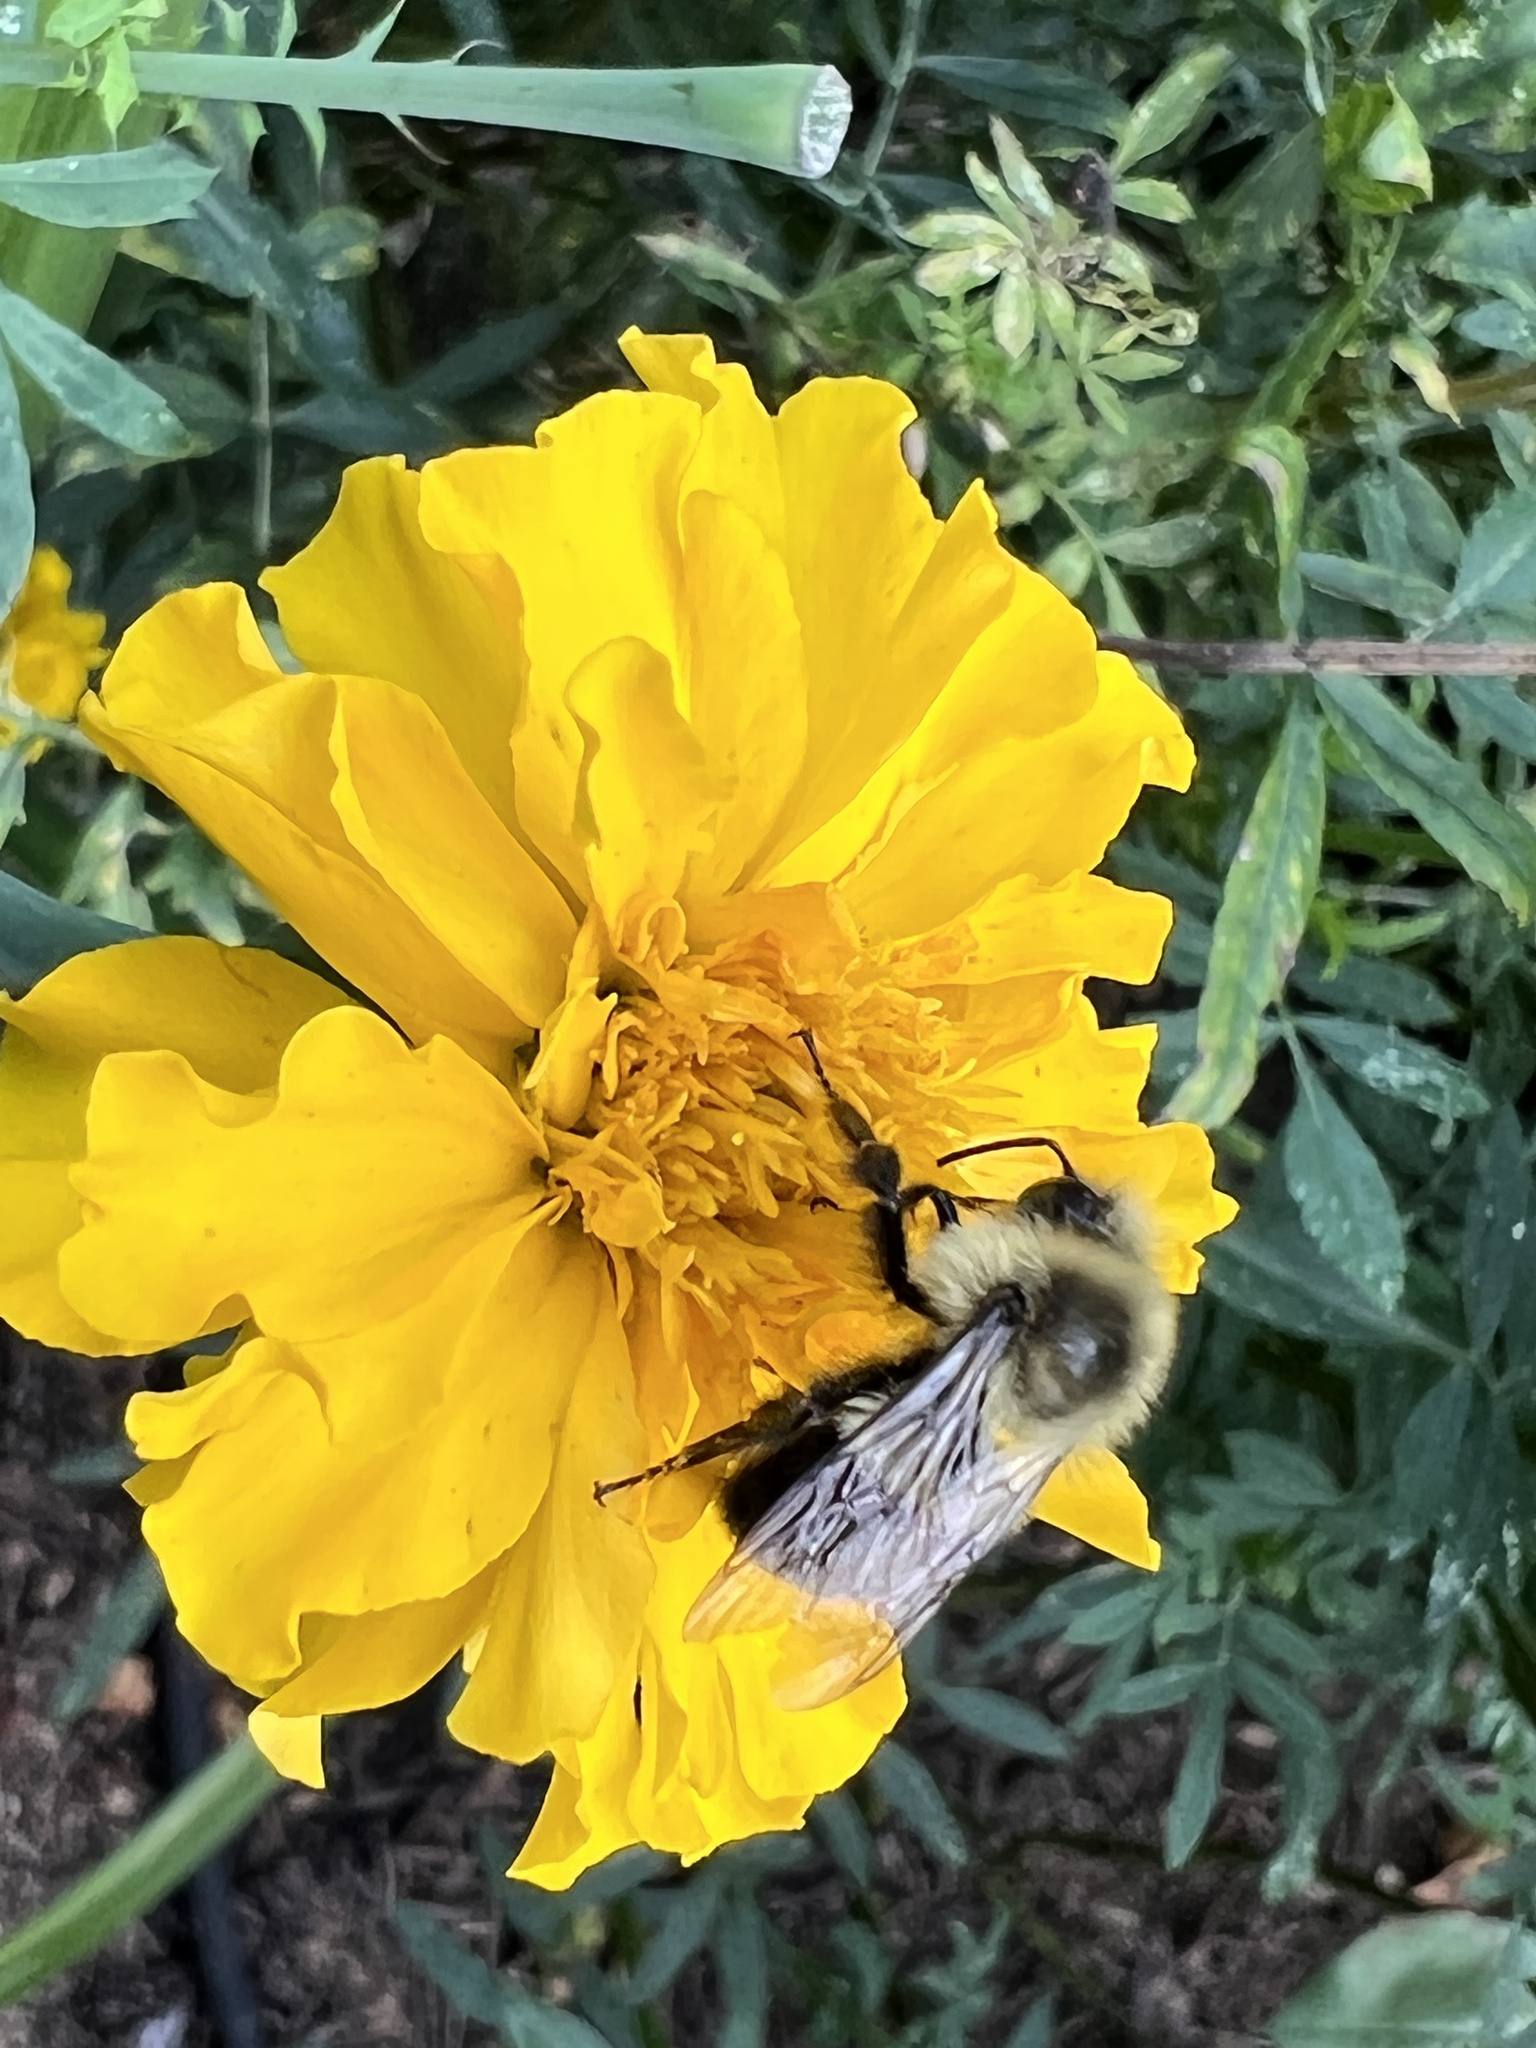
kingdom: Animalia
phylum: Arthropoda
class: Insecta
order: Hymenoptera
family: Apidae
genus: Bombus
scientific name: Bombus impatiens
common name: Common eastern bumble bee
